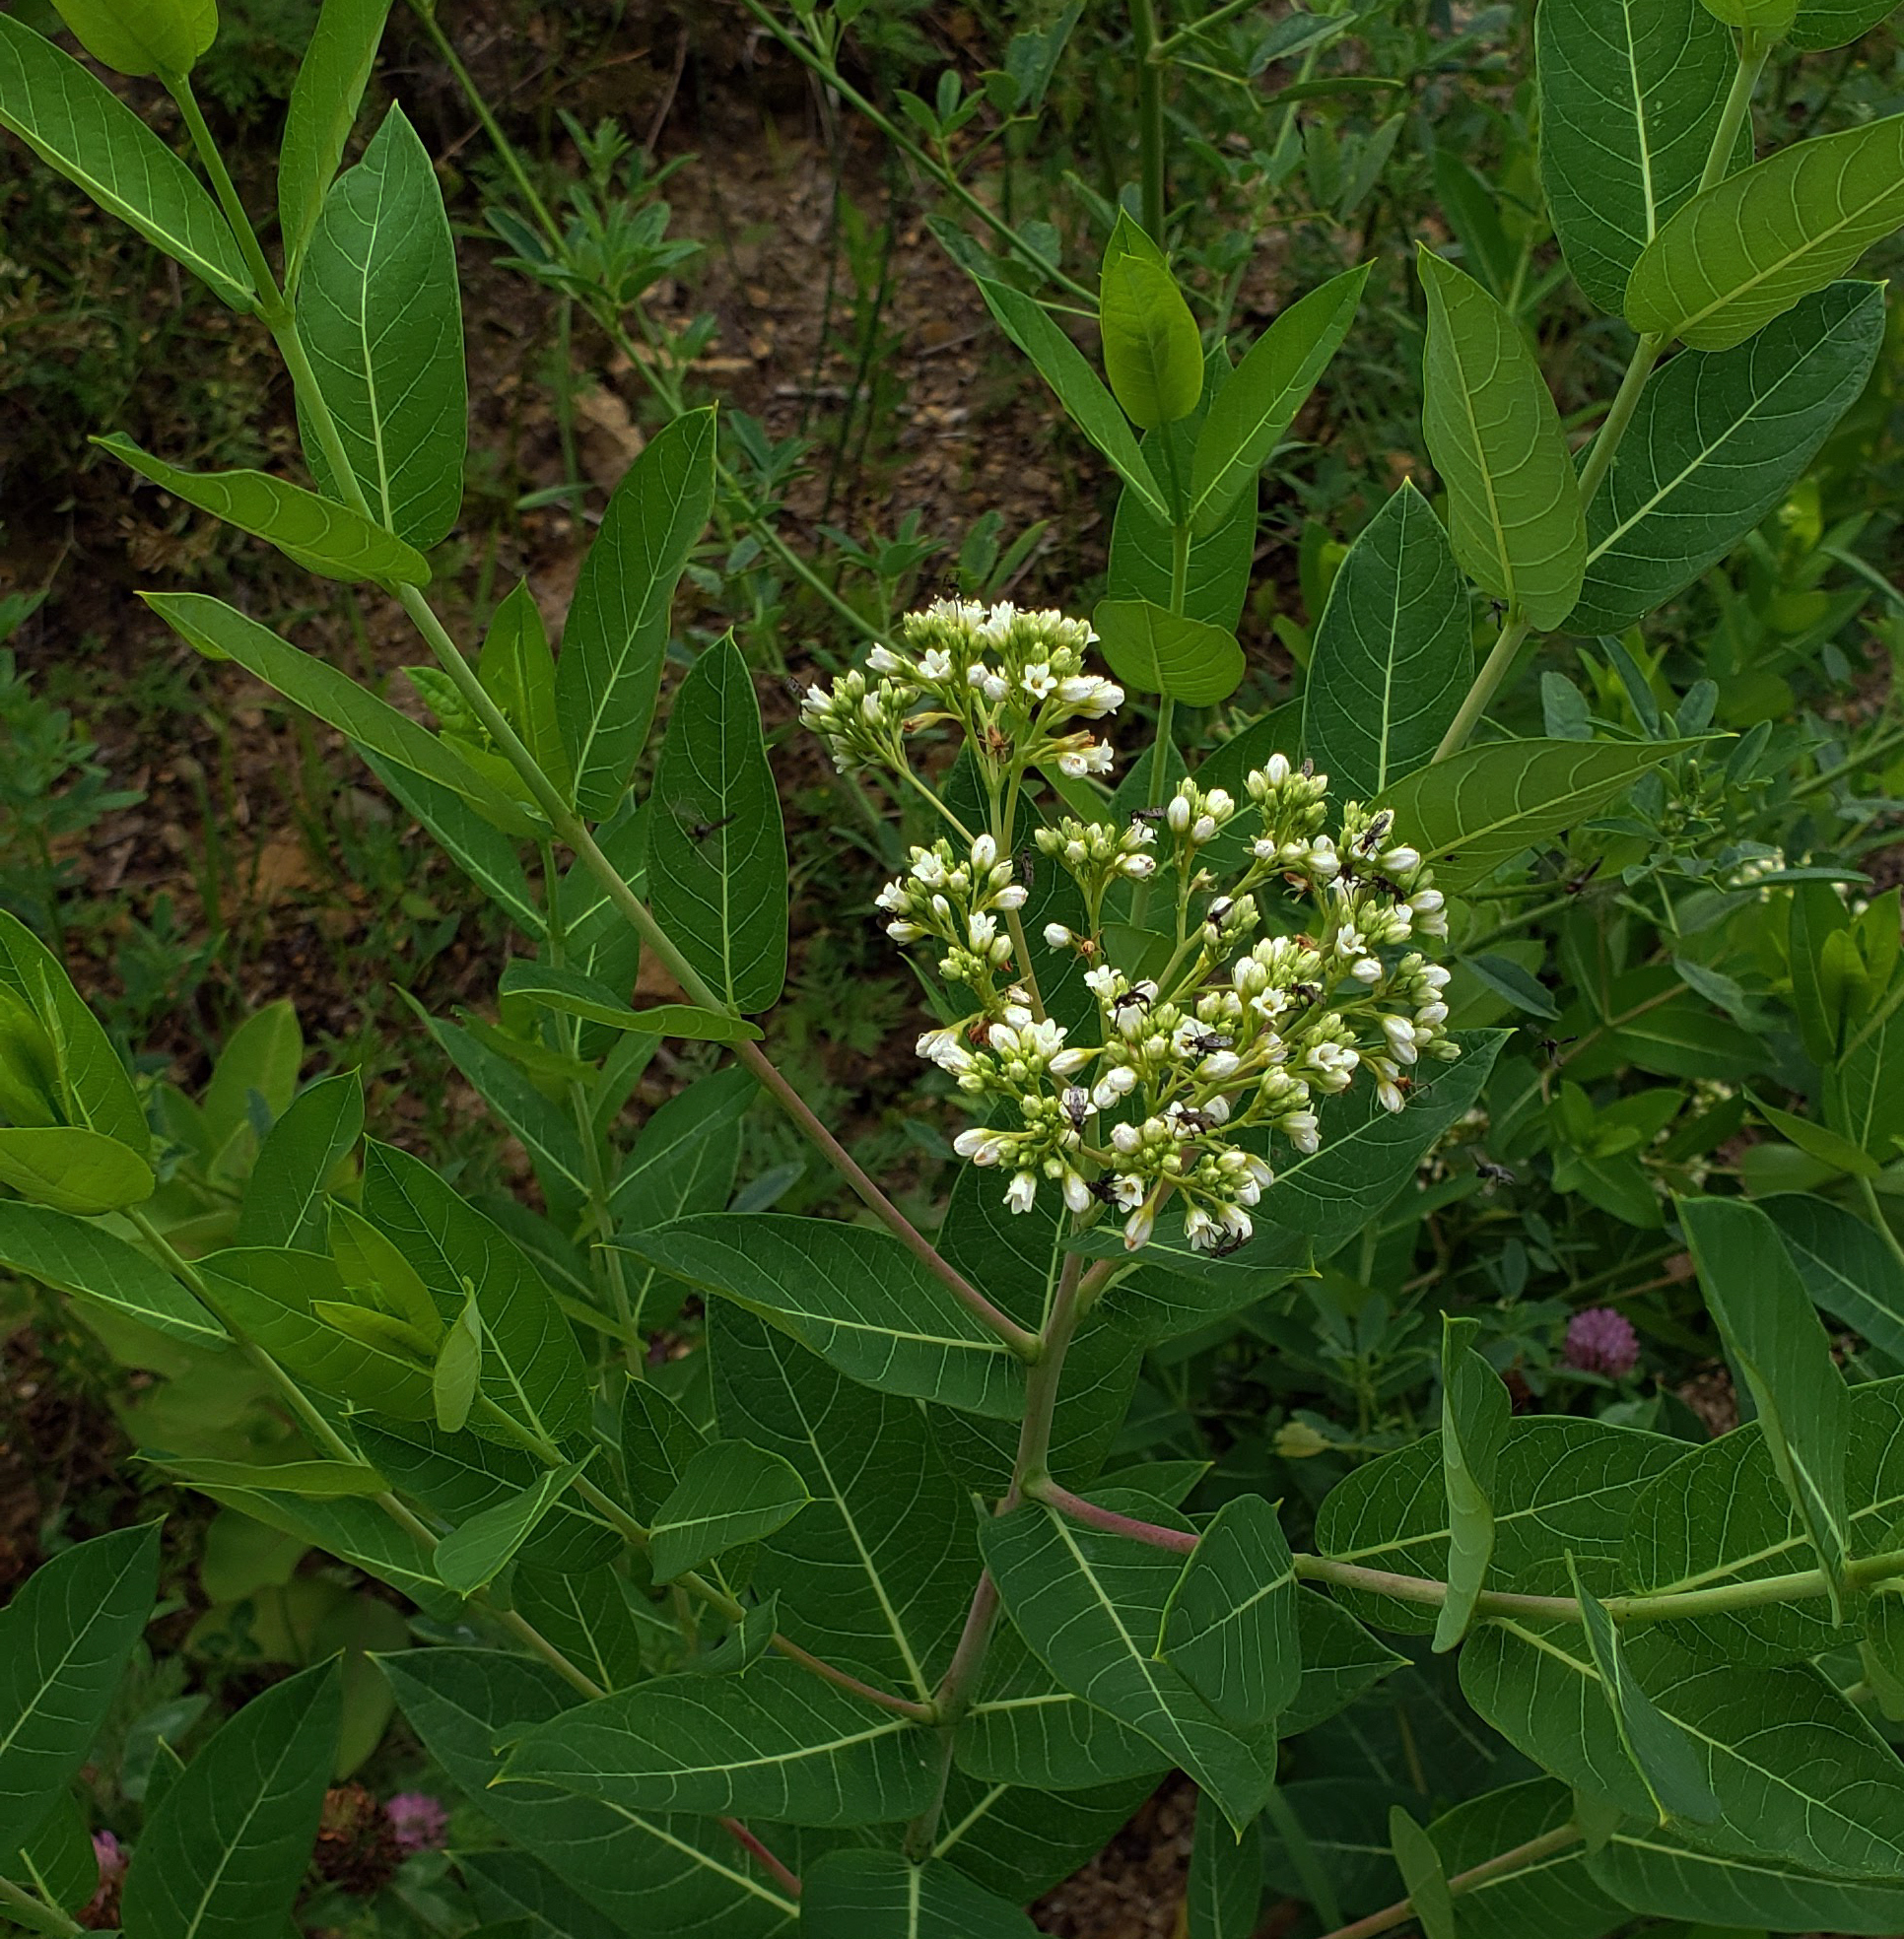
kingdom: Plantae
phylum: Tracheophyta
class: Magnoliopsida
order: Gentianales
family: Apocynaceae
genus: Apocynum
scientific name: Apocynum cannabinum
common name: Hemp dogbane
